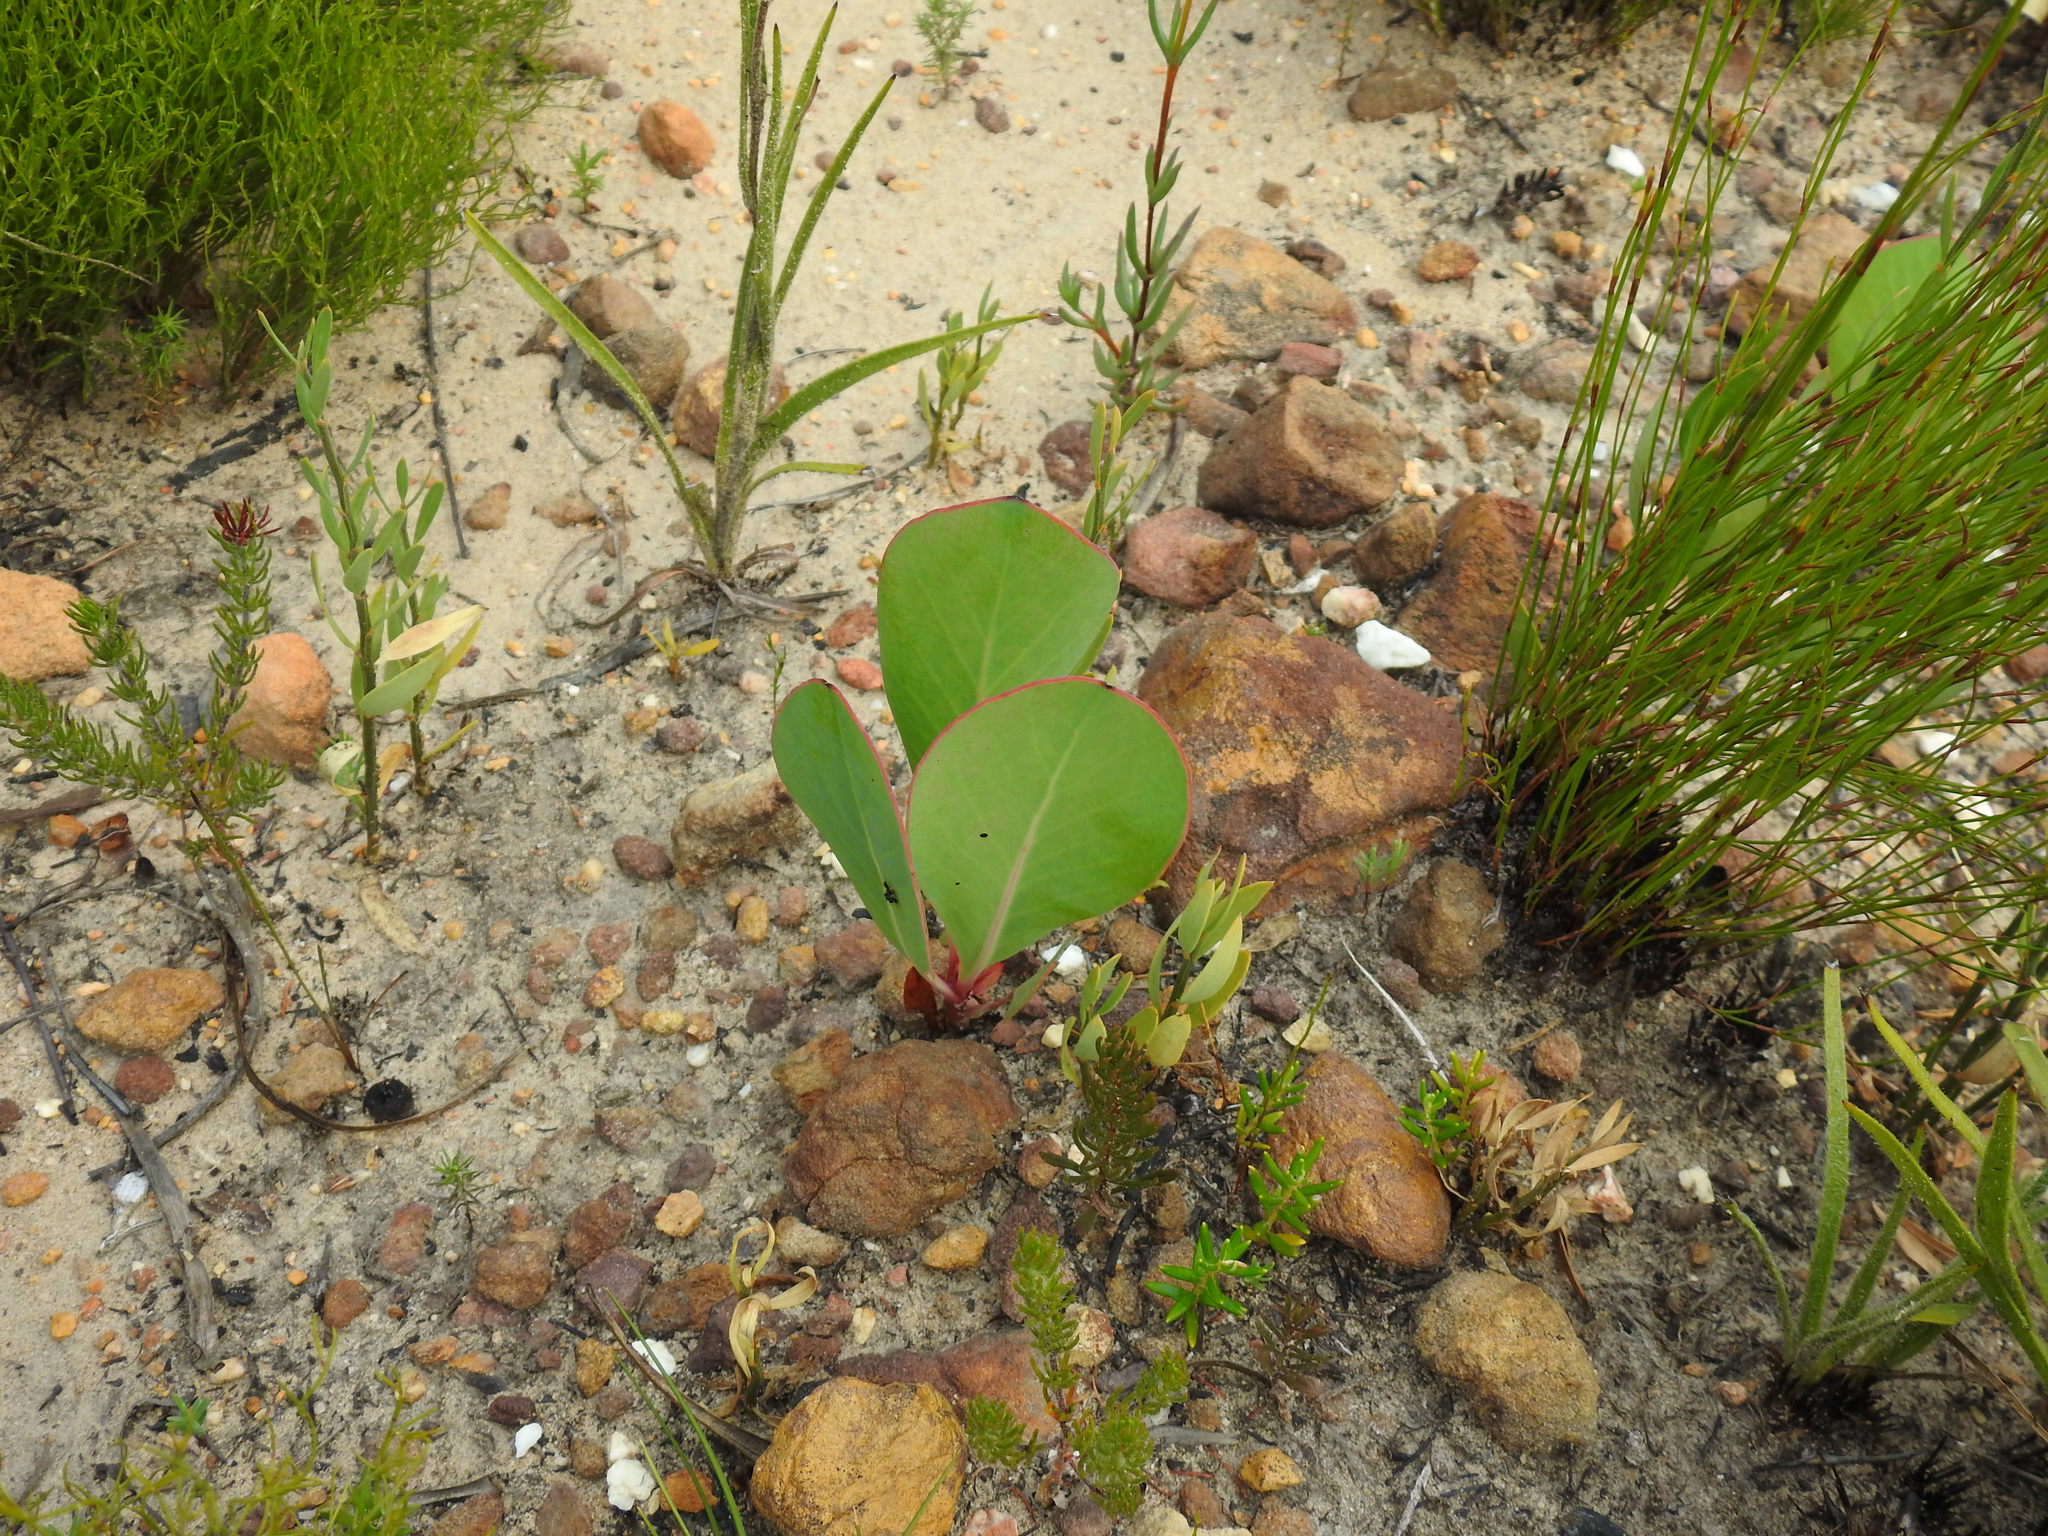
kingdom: Plantae
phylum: Tracheophyta
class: Magnoliopsida
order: Proteales
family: Proteaceae
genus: Protea
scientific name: Protea acaulos
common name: Common ground sugarbush
